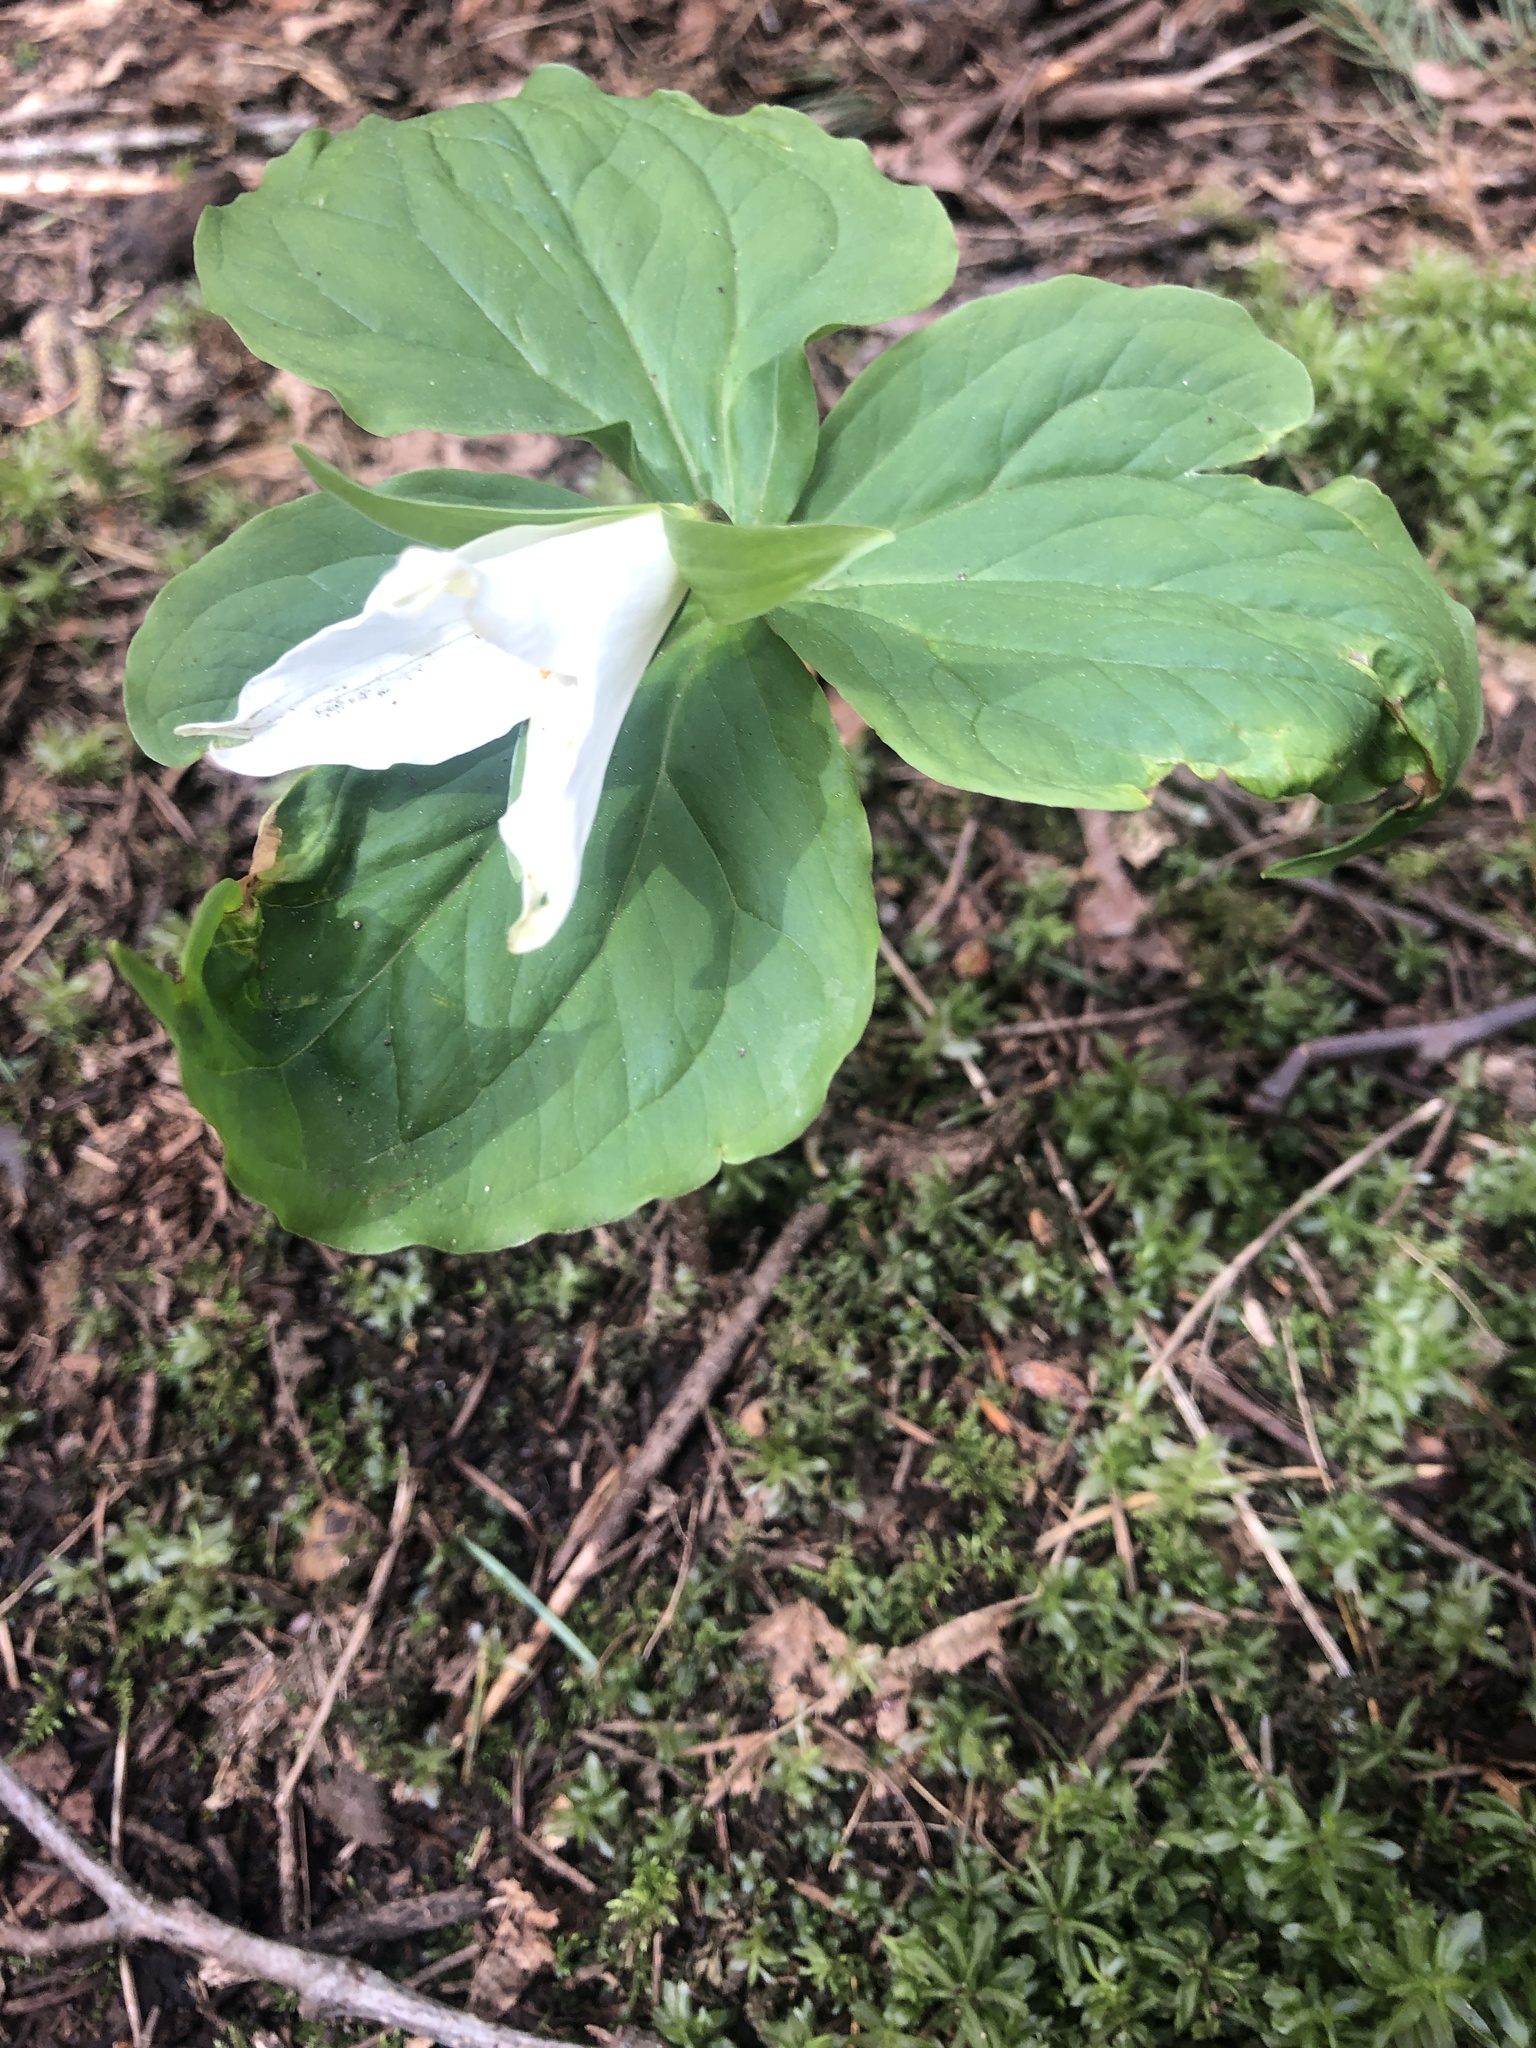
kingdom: Plantae
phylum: Tracheophyta
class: Liliopsida
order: Liliales
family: Melanthiaceae
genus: Trillium
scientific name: Trillium ovatum
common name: Pacific trillium
